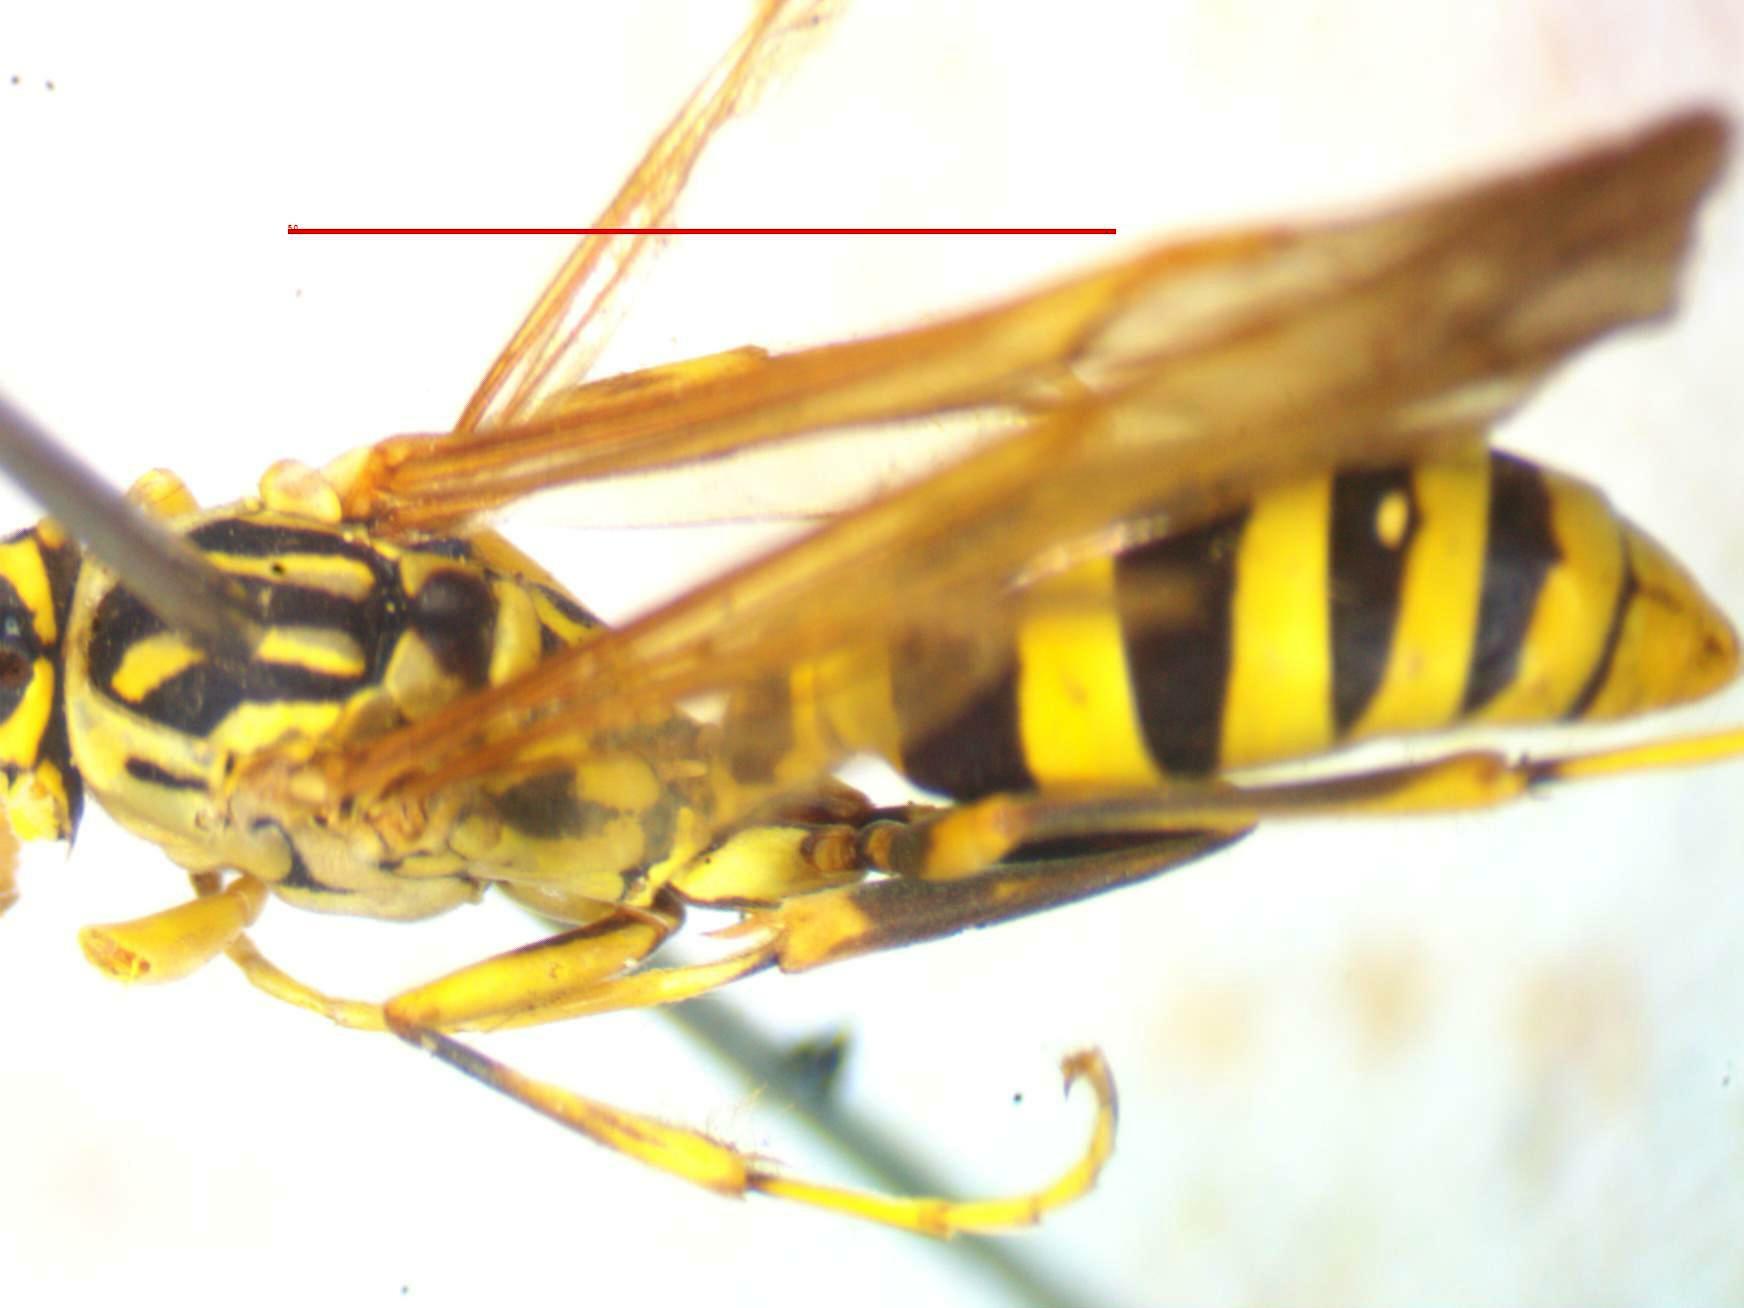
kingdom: Animalia
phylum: Arthropoda
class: Insecta
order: Hymenoptera
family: Vespidae
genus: Mischocyttarus
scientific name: Mischocyttarus basimacula
